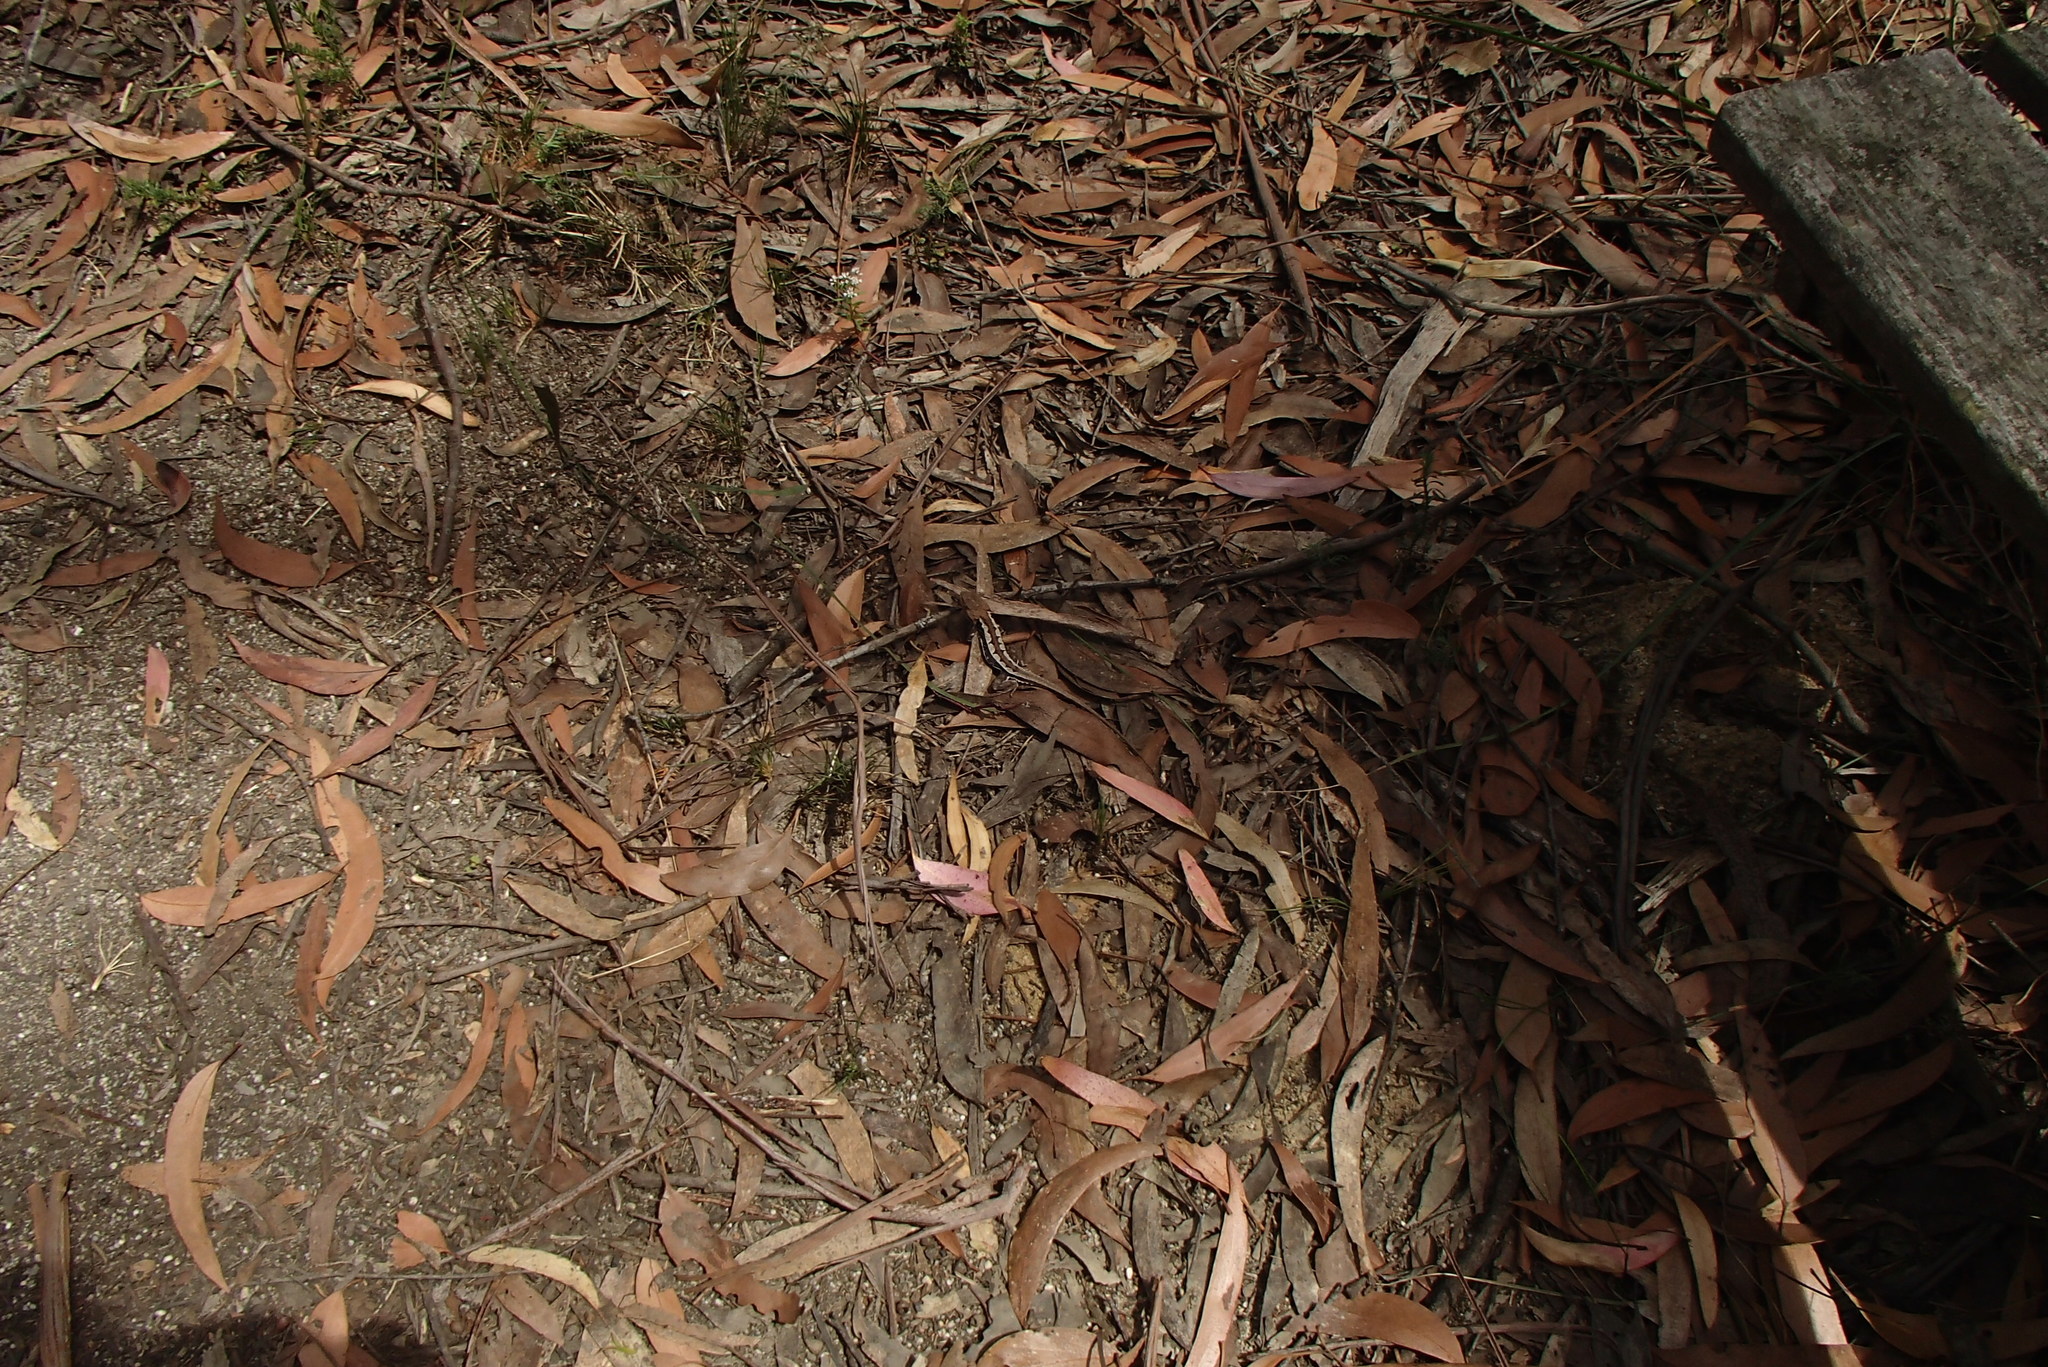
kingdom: Animalia
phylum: Chordata
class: Squamata
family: Agamidae
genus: Rankinia
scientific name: Rankinia diemensis
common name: Mountain dragon
